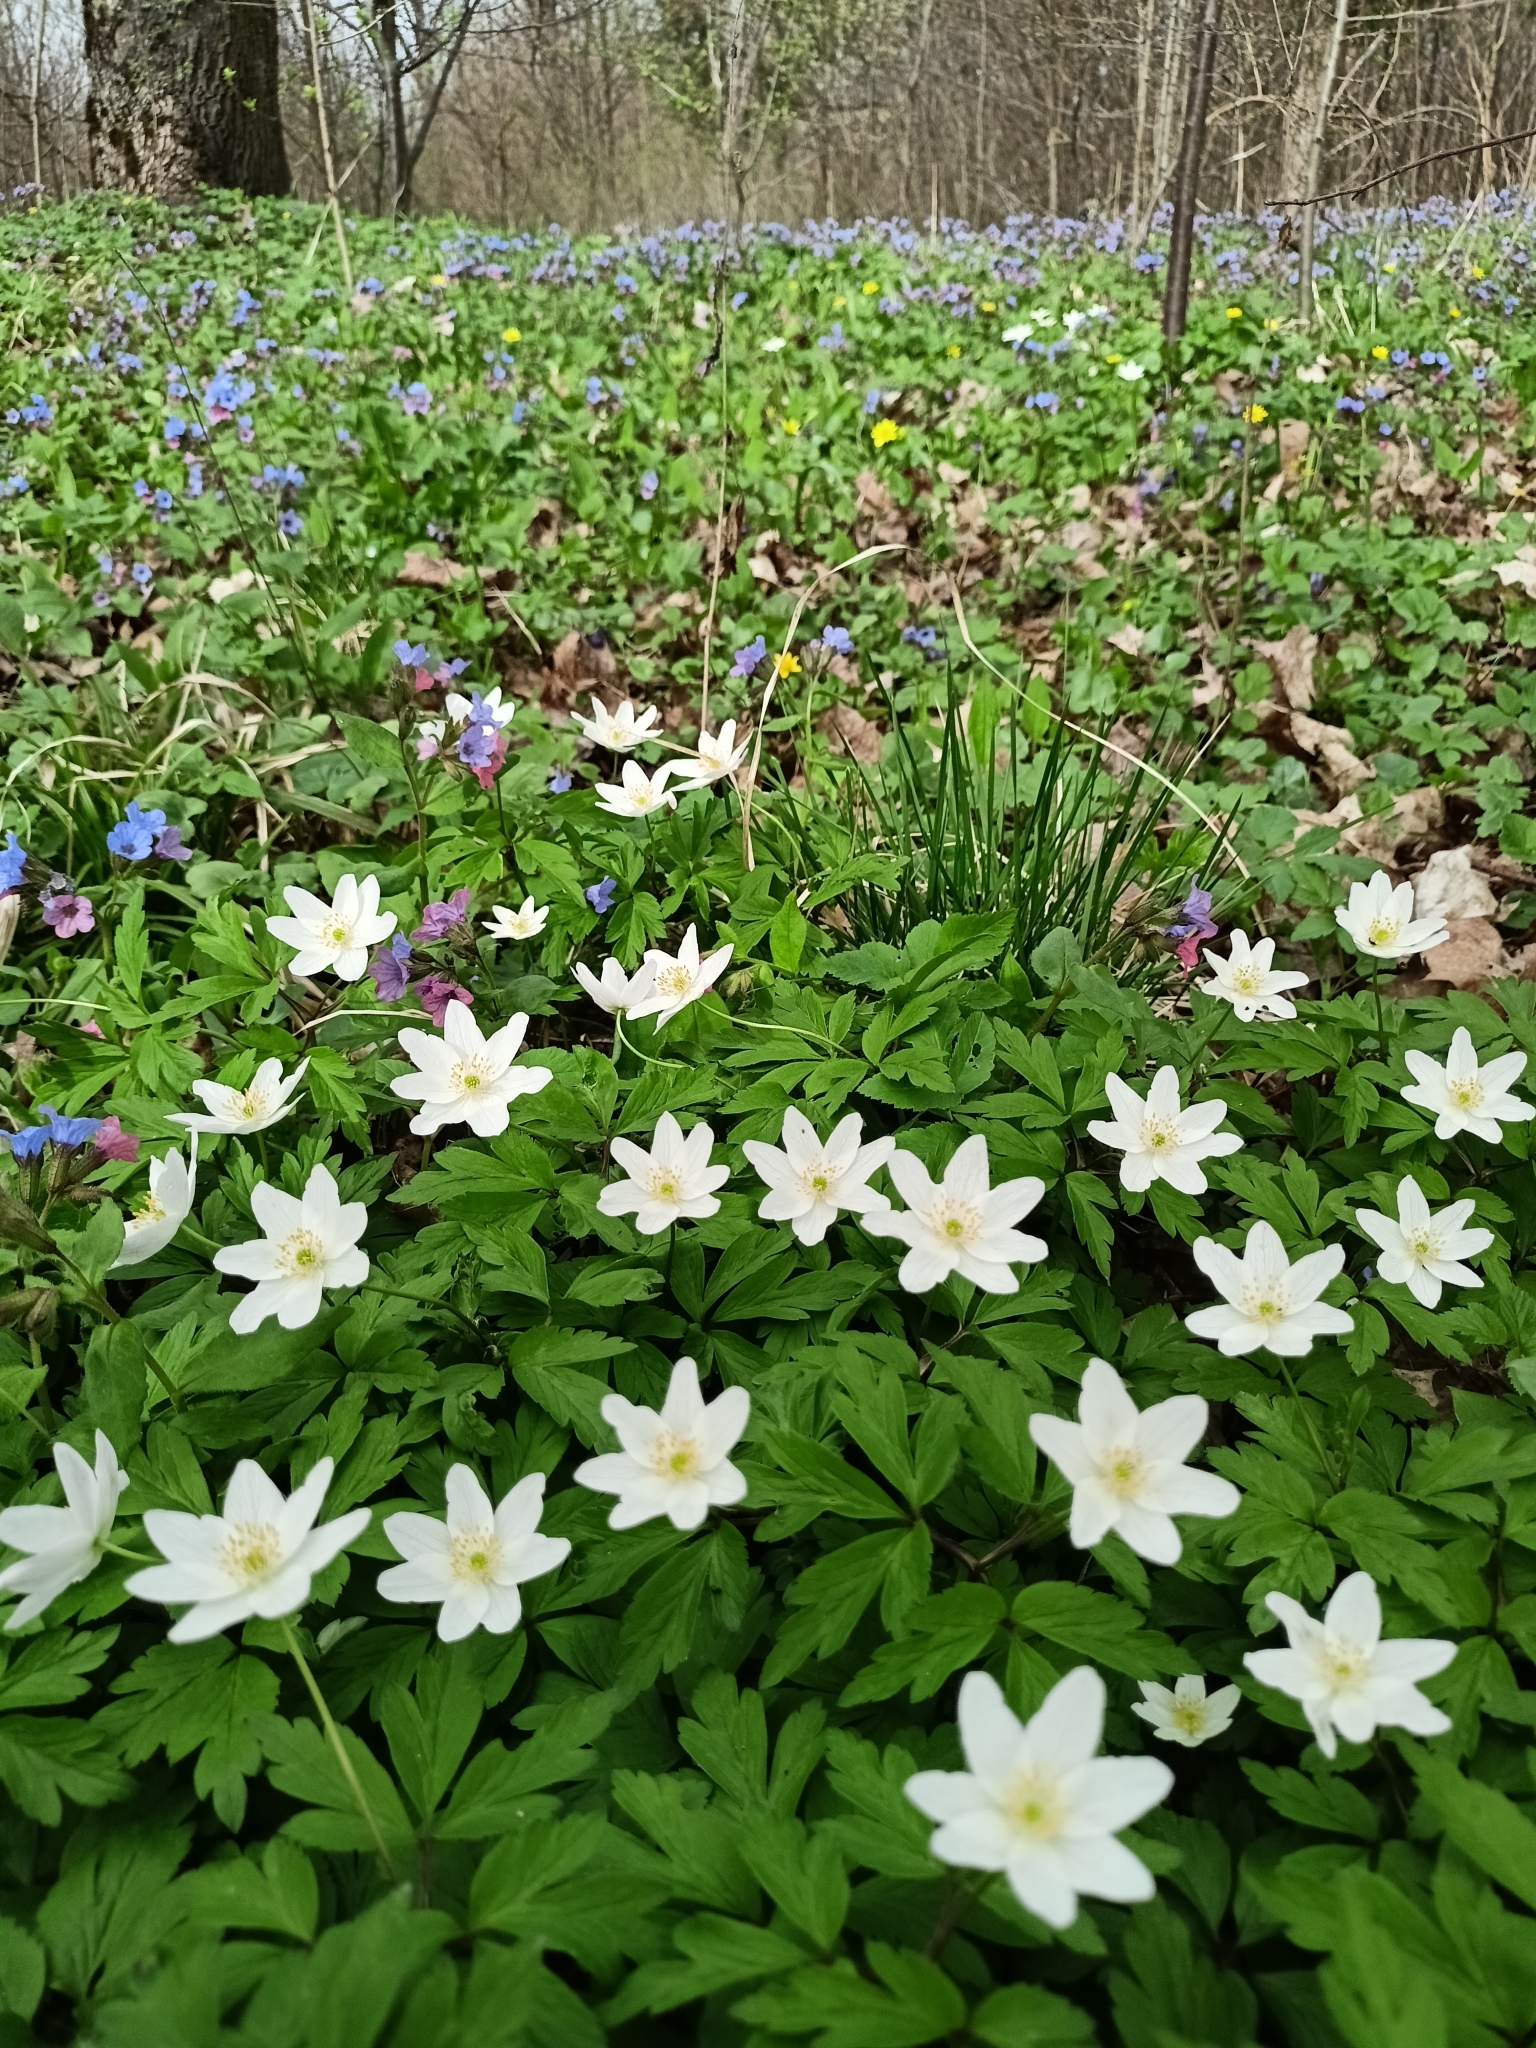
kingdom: Plantae
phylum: Tracheophyta
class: Magnoliopsida
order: Ranunculales
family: Ranunculaceae
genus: Anemone
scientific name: Anemone nemorosa
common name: Wood anemone
